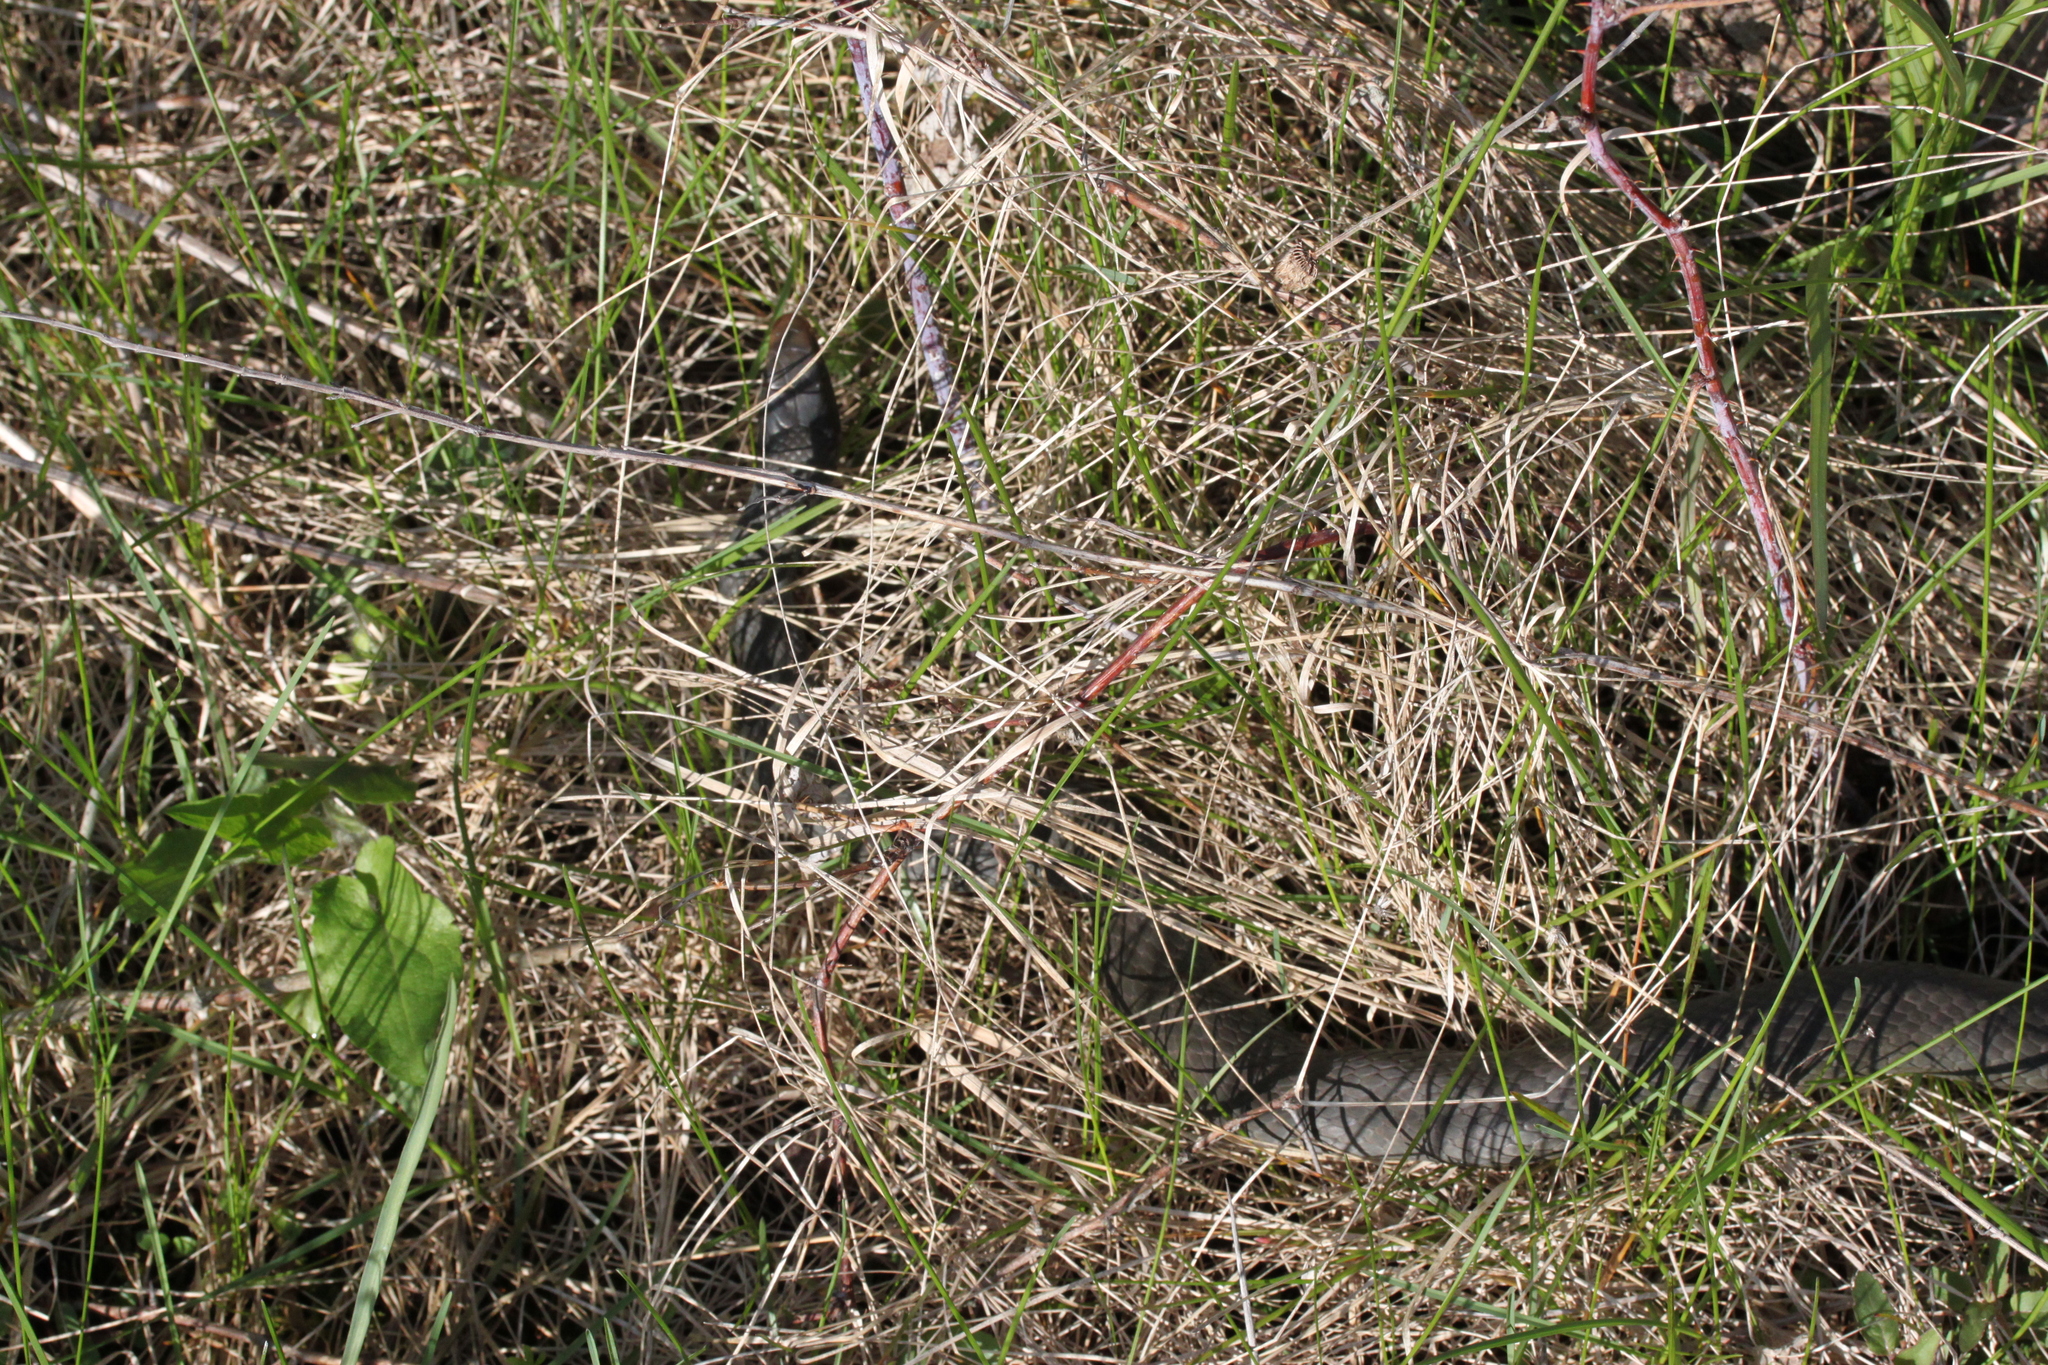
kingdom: Animalia
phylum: Chordata
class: Squamata
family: Colubridae
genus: Coluber
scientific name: Coluber constrictor
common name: Eastern racer
